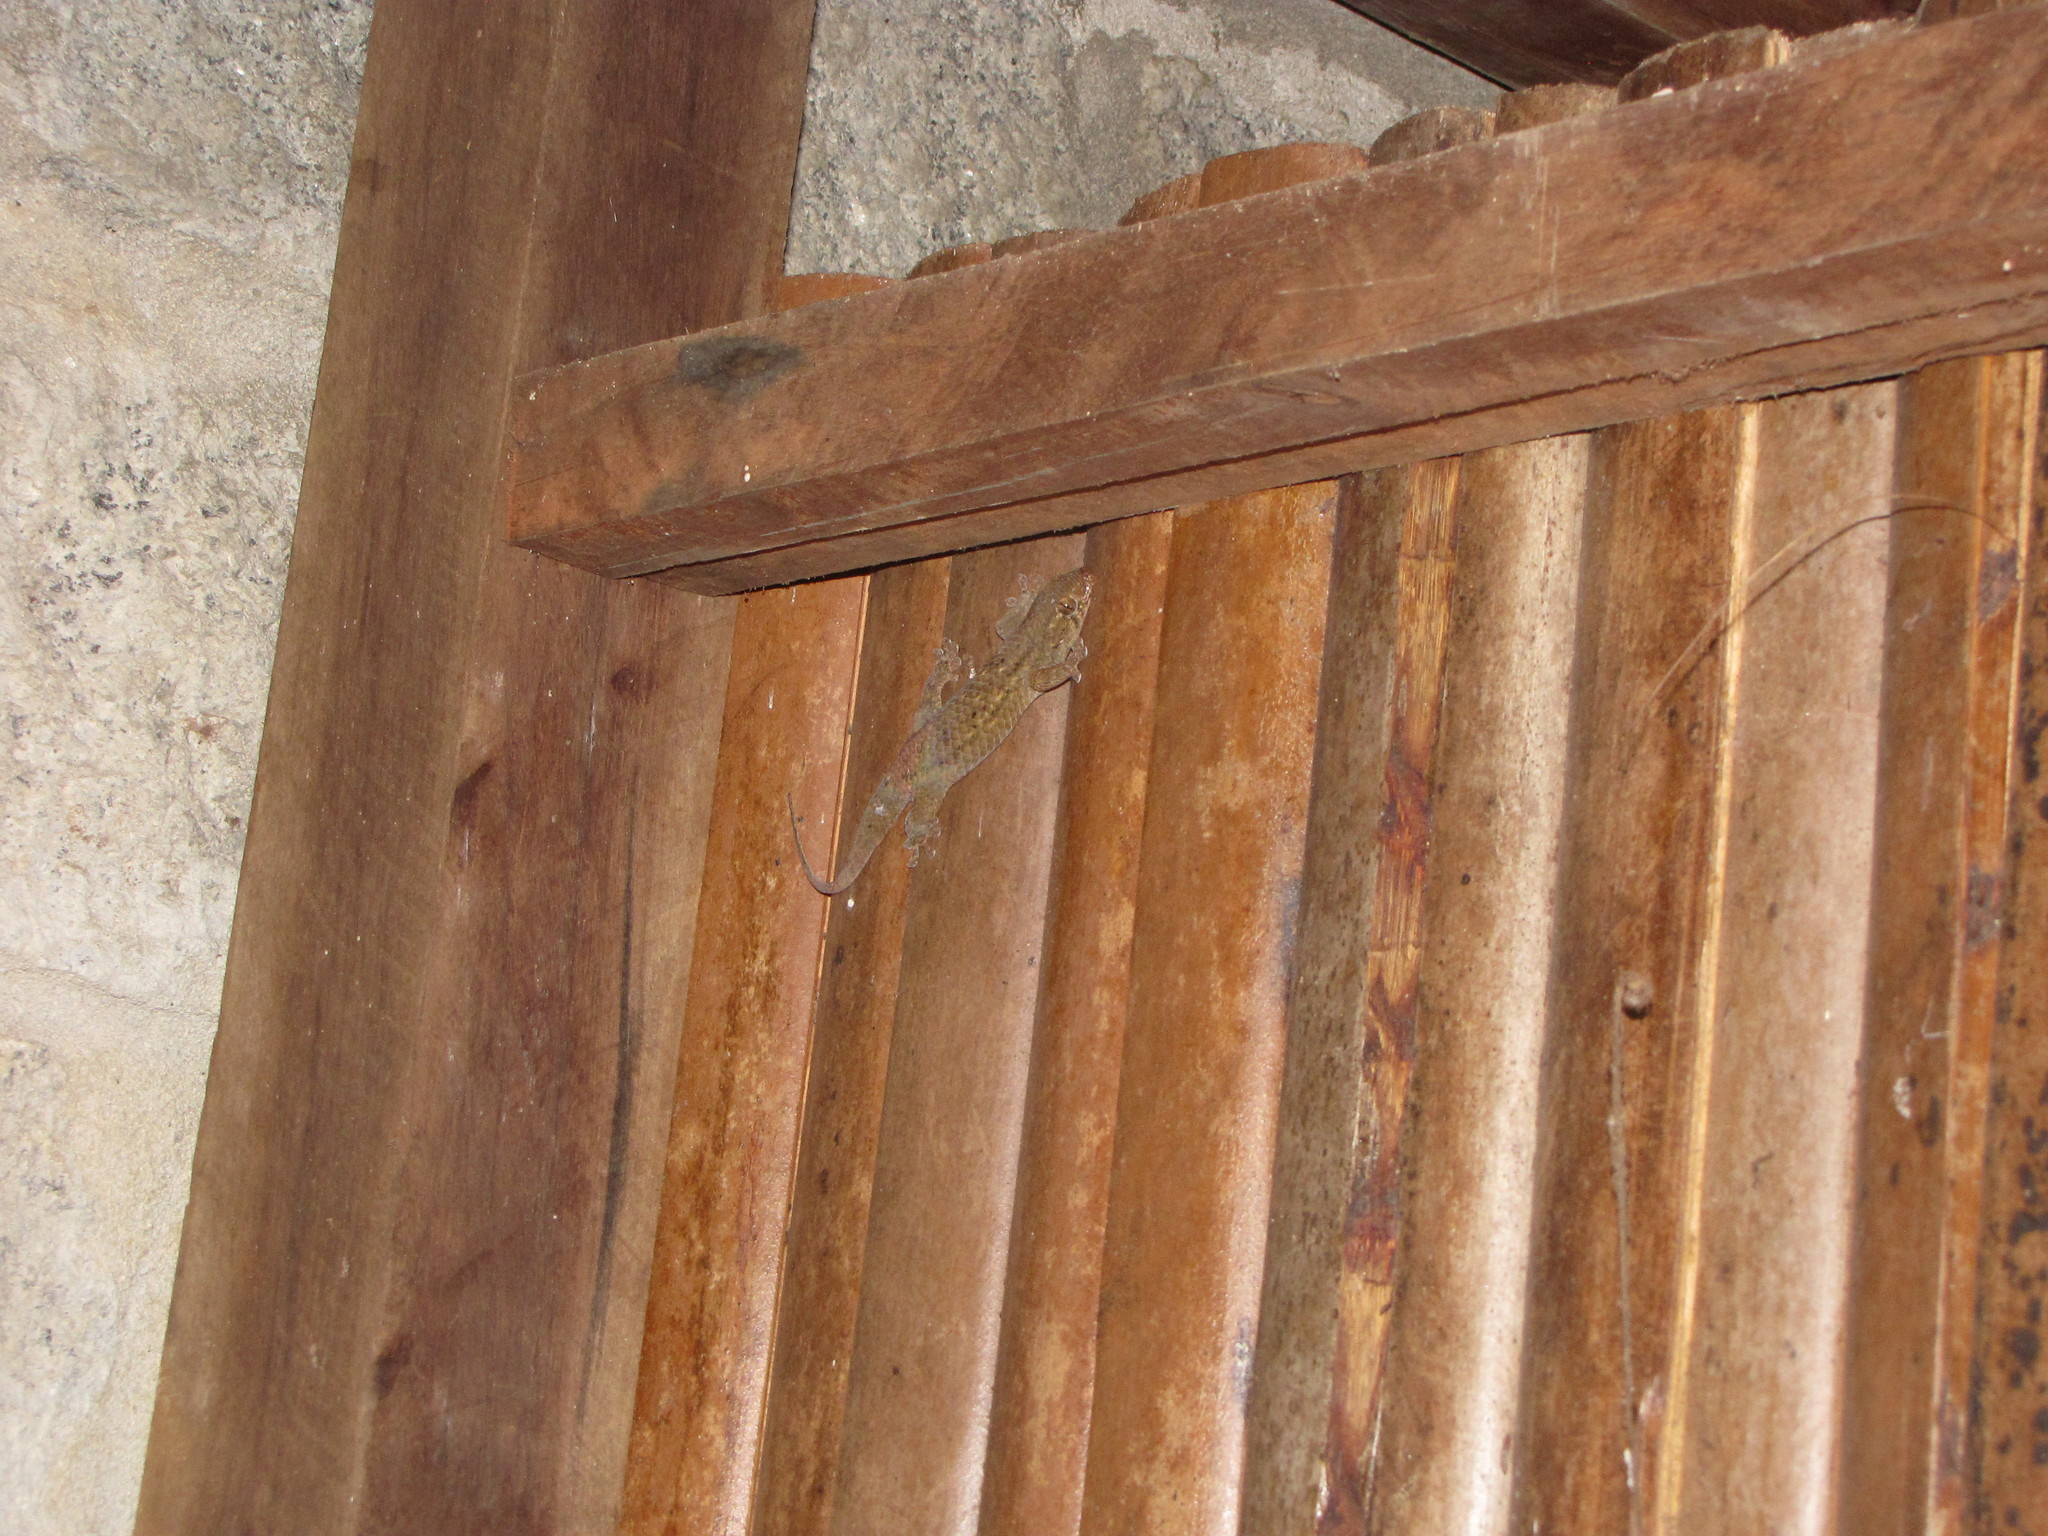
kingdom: Animalia
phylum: Chordata
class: Squamata
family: Gekkonidae
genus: Geckolepis
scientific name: Geckolepis maculata
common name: Peters' spotted gecko
